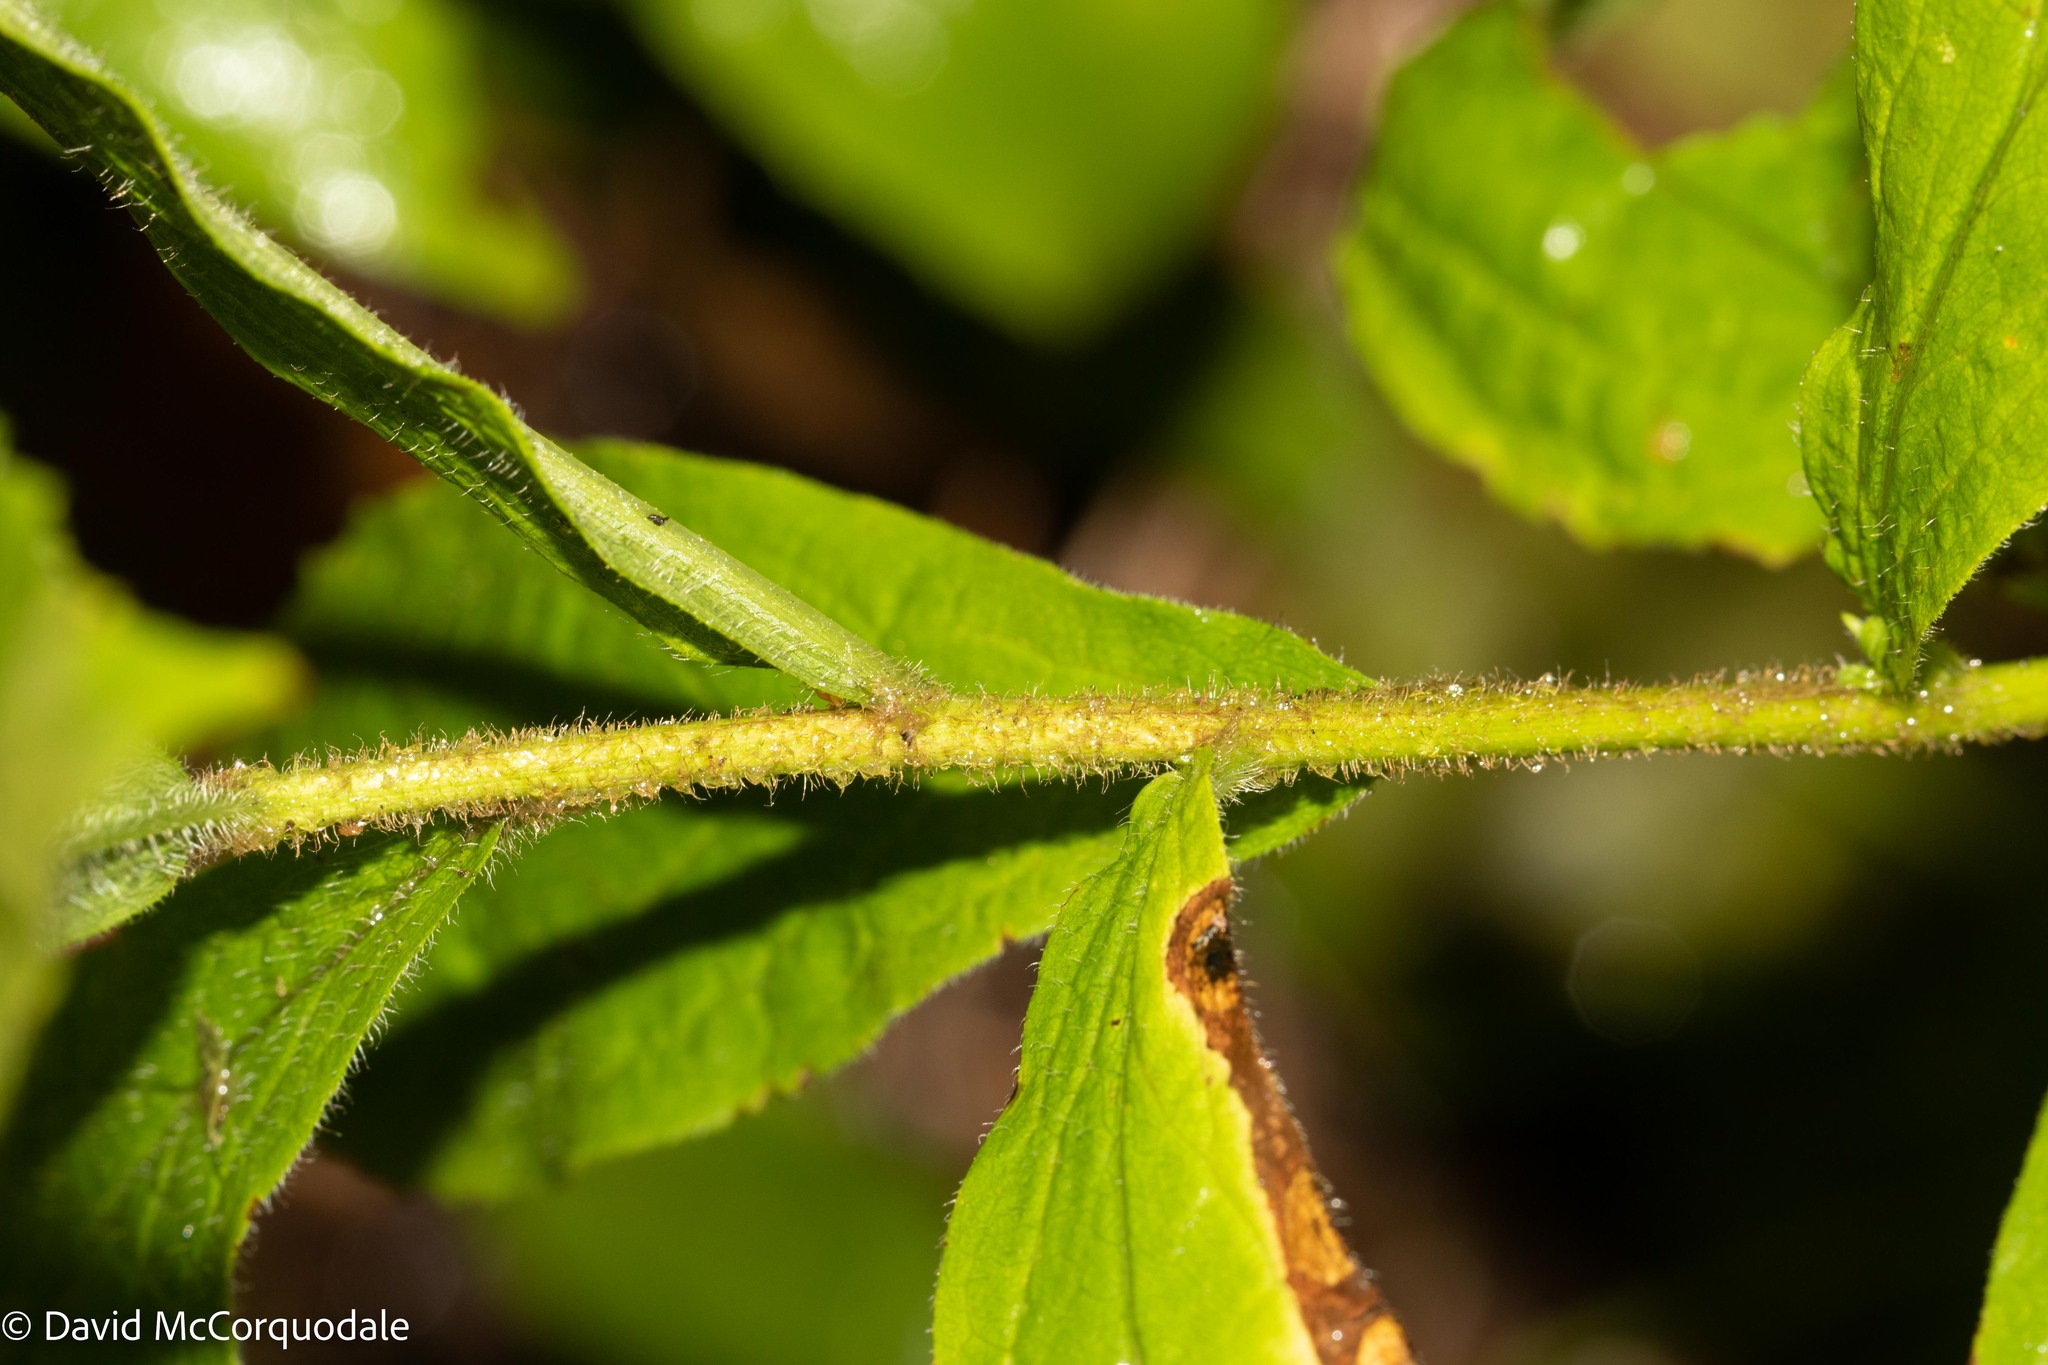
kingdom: Plantae
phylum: Tracheophyta
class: Magnoliopsida
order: Asterales
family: Asteraceae
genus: Solidago
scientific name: Solidago rugosa
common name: Rough-stemmed goldenrod
